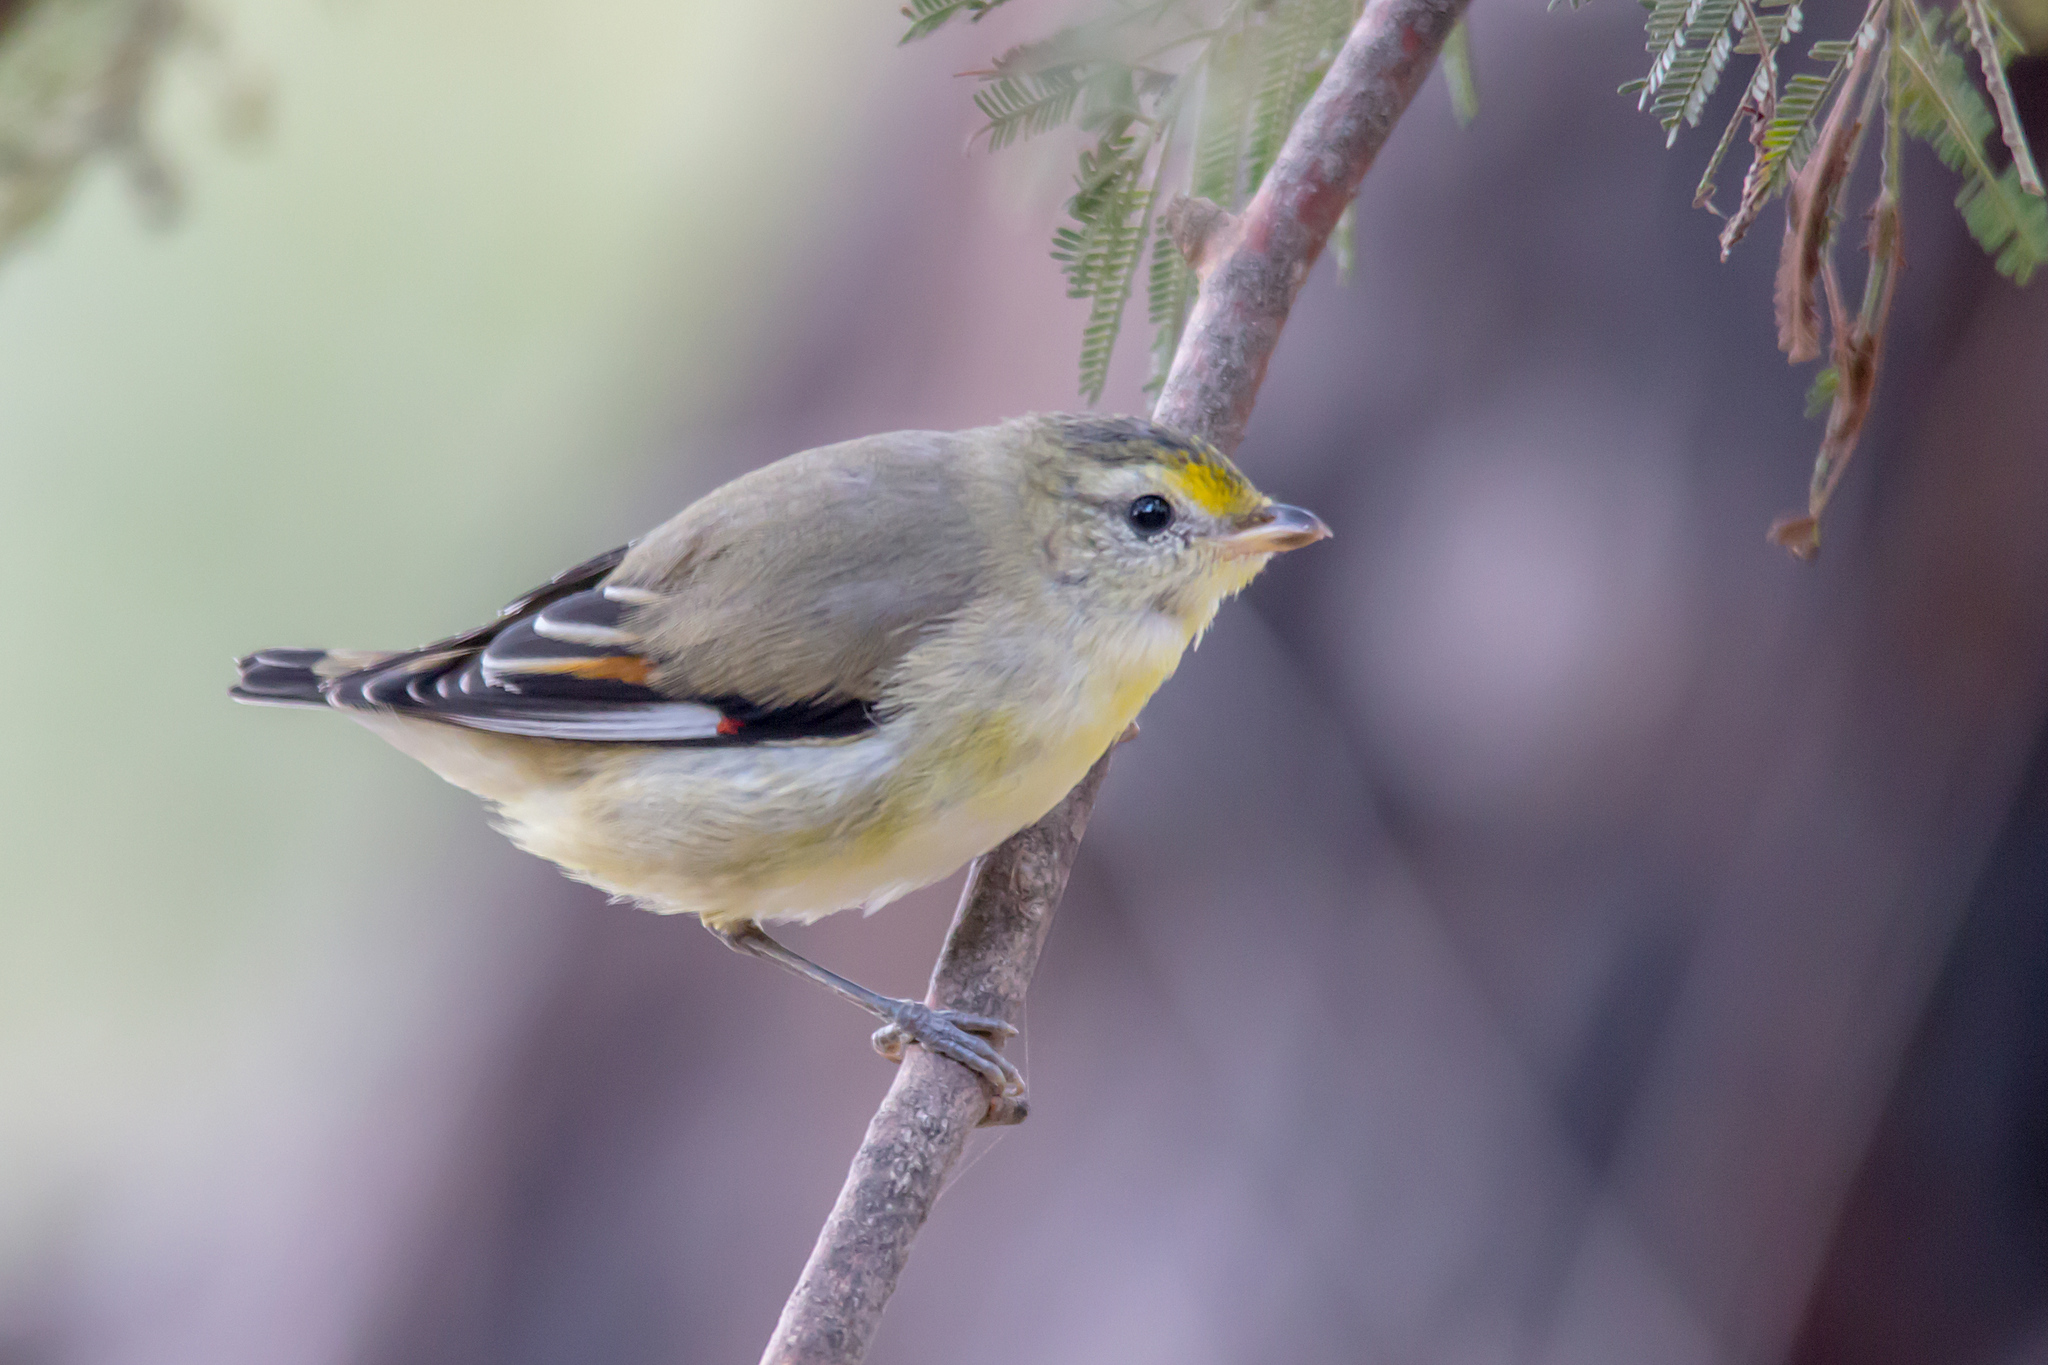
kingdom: Animalia
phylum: Chordata
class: Aves
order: Passeriformes
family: Pardalotidae
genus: Pardalotus
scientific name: Pardalotus striatus
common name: Striated pardalote
